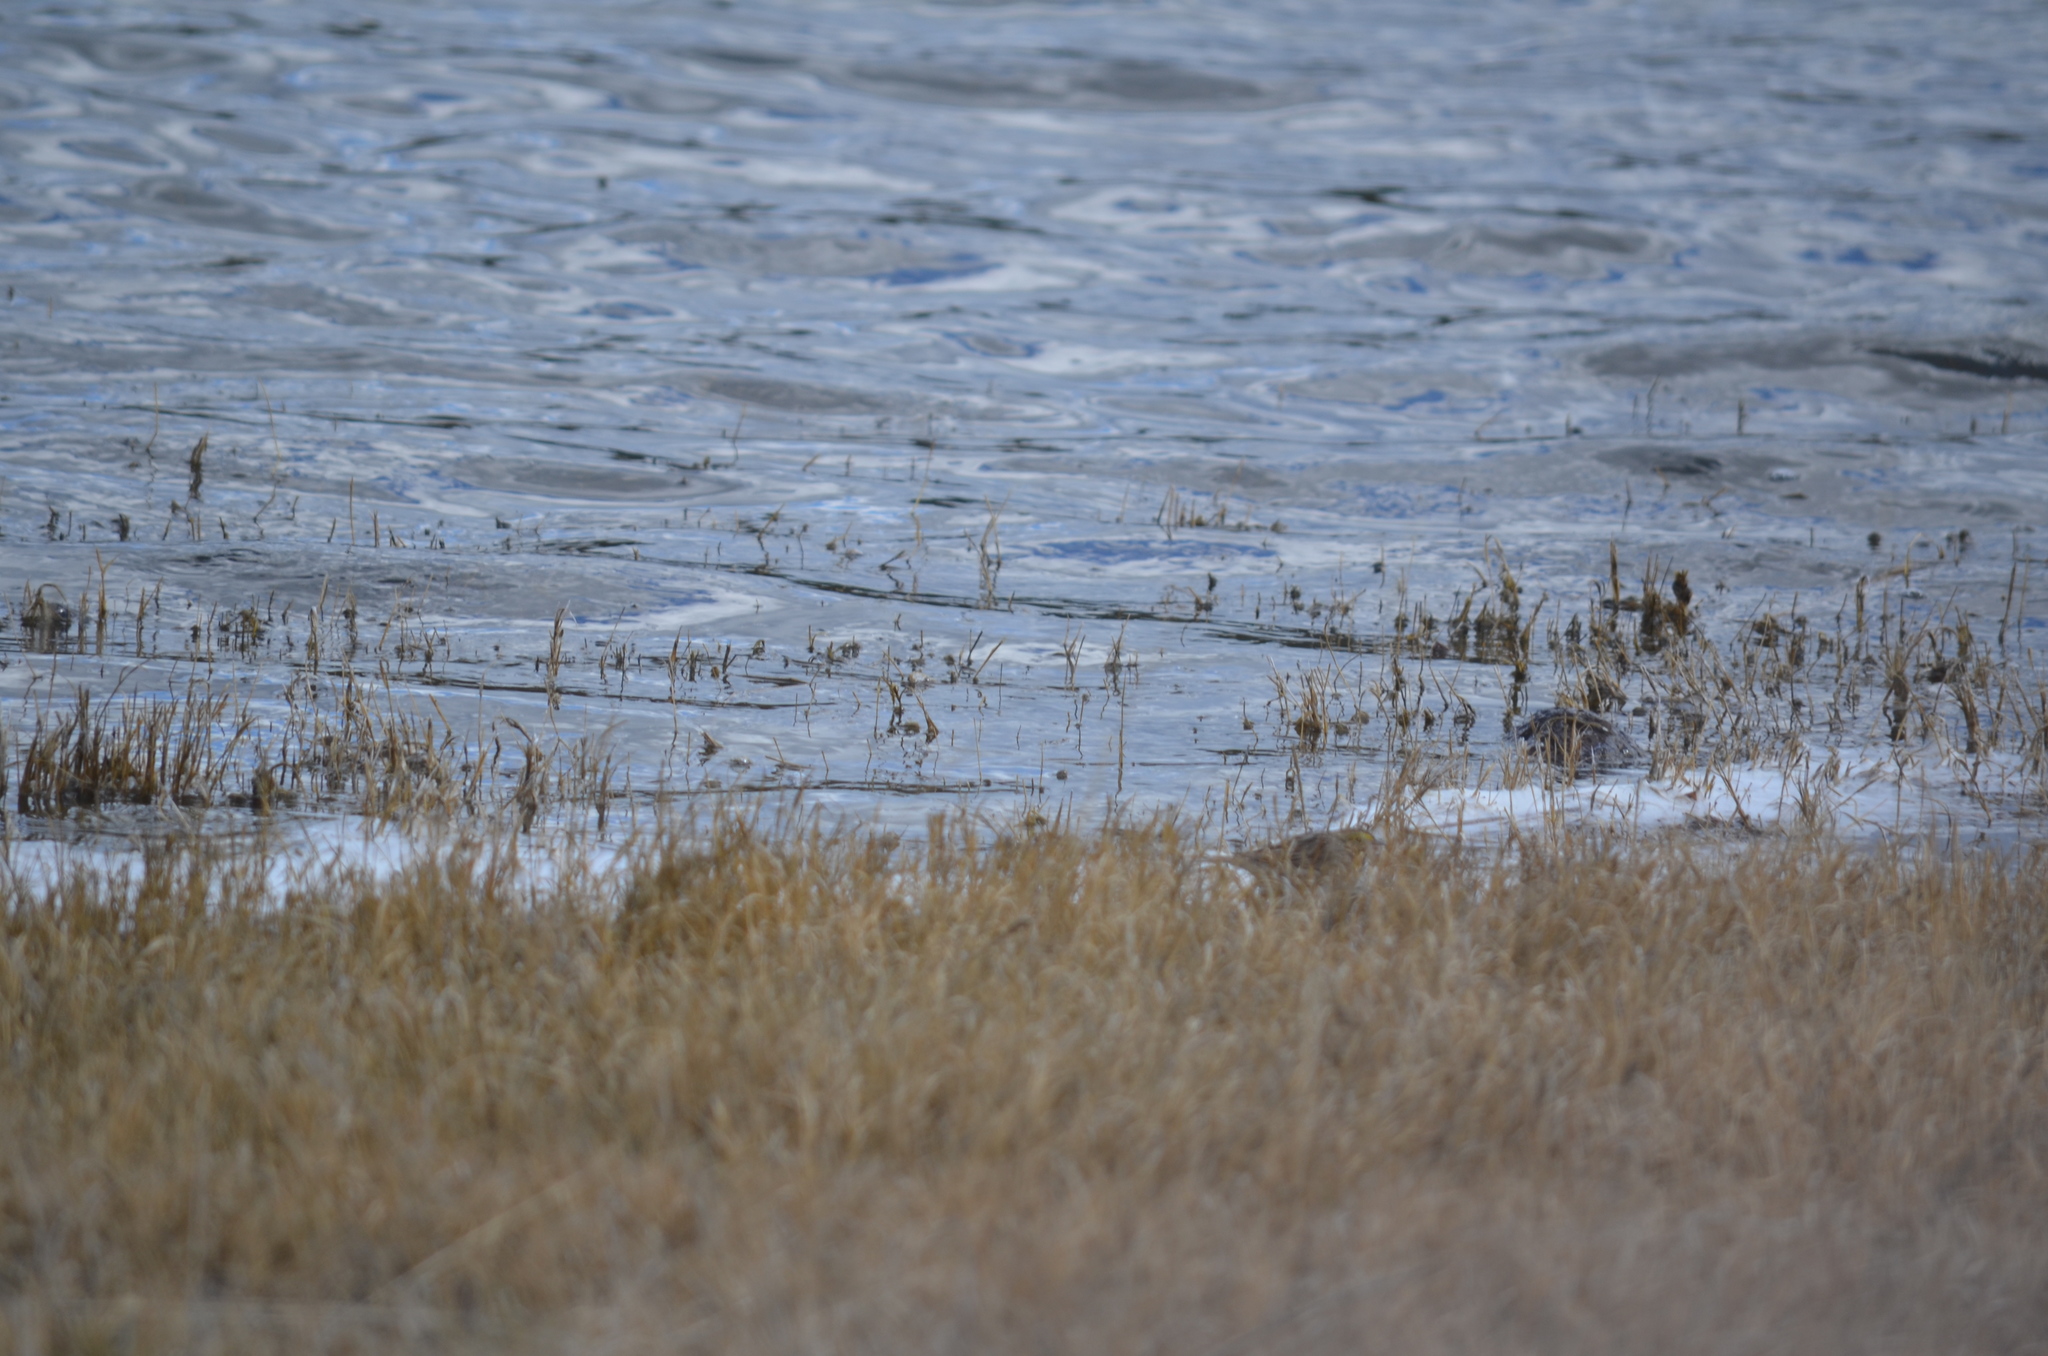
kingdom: Animalia
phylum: Chordata
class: Aves
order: Passeriformes
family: Passerellidae
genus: Passerculus
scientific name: Passerculus sandwichensis
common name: Savannah sparrow
